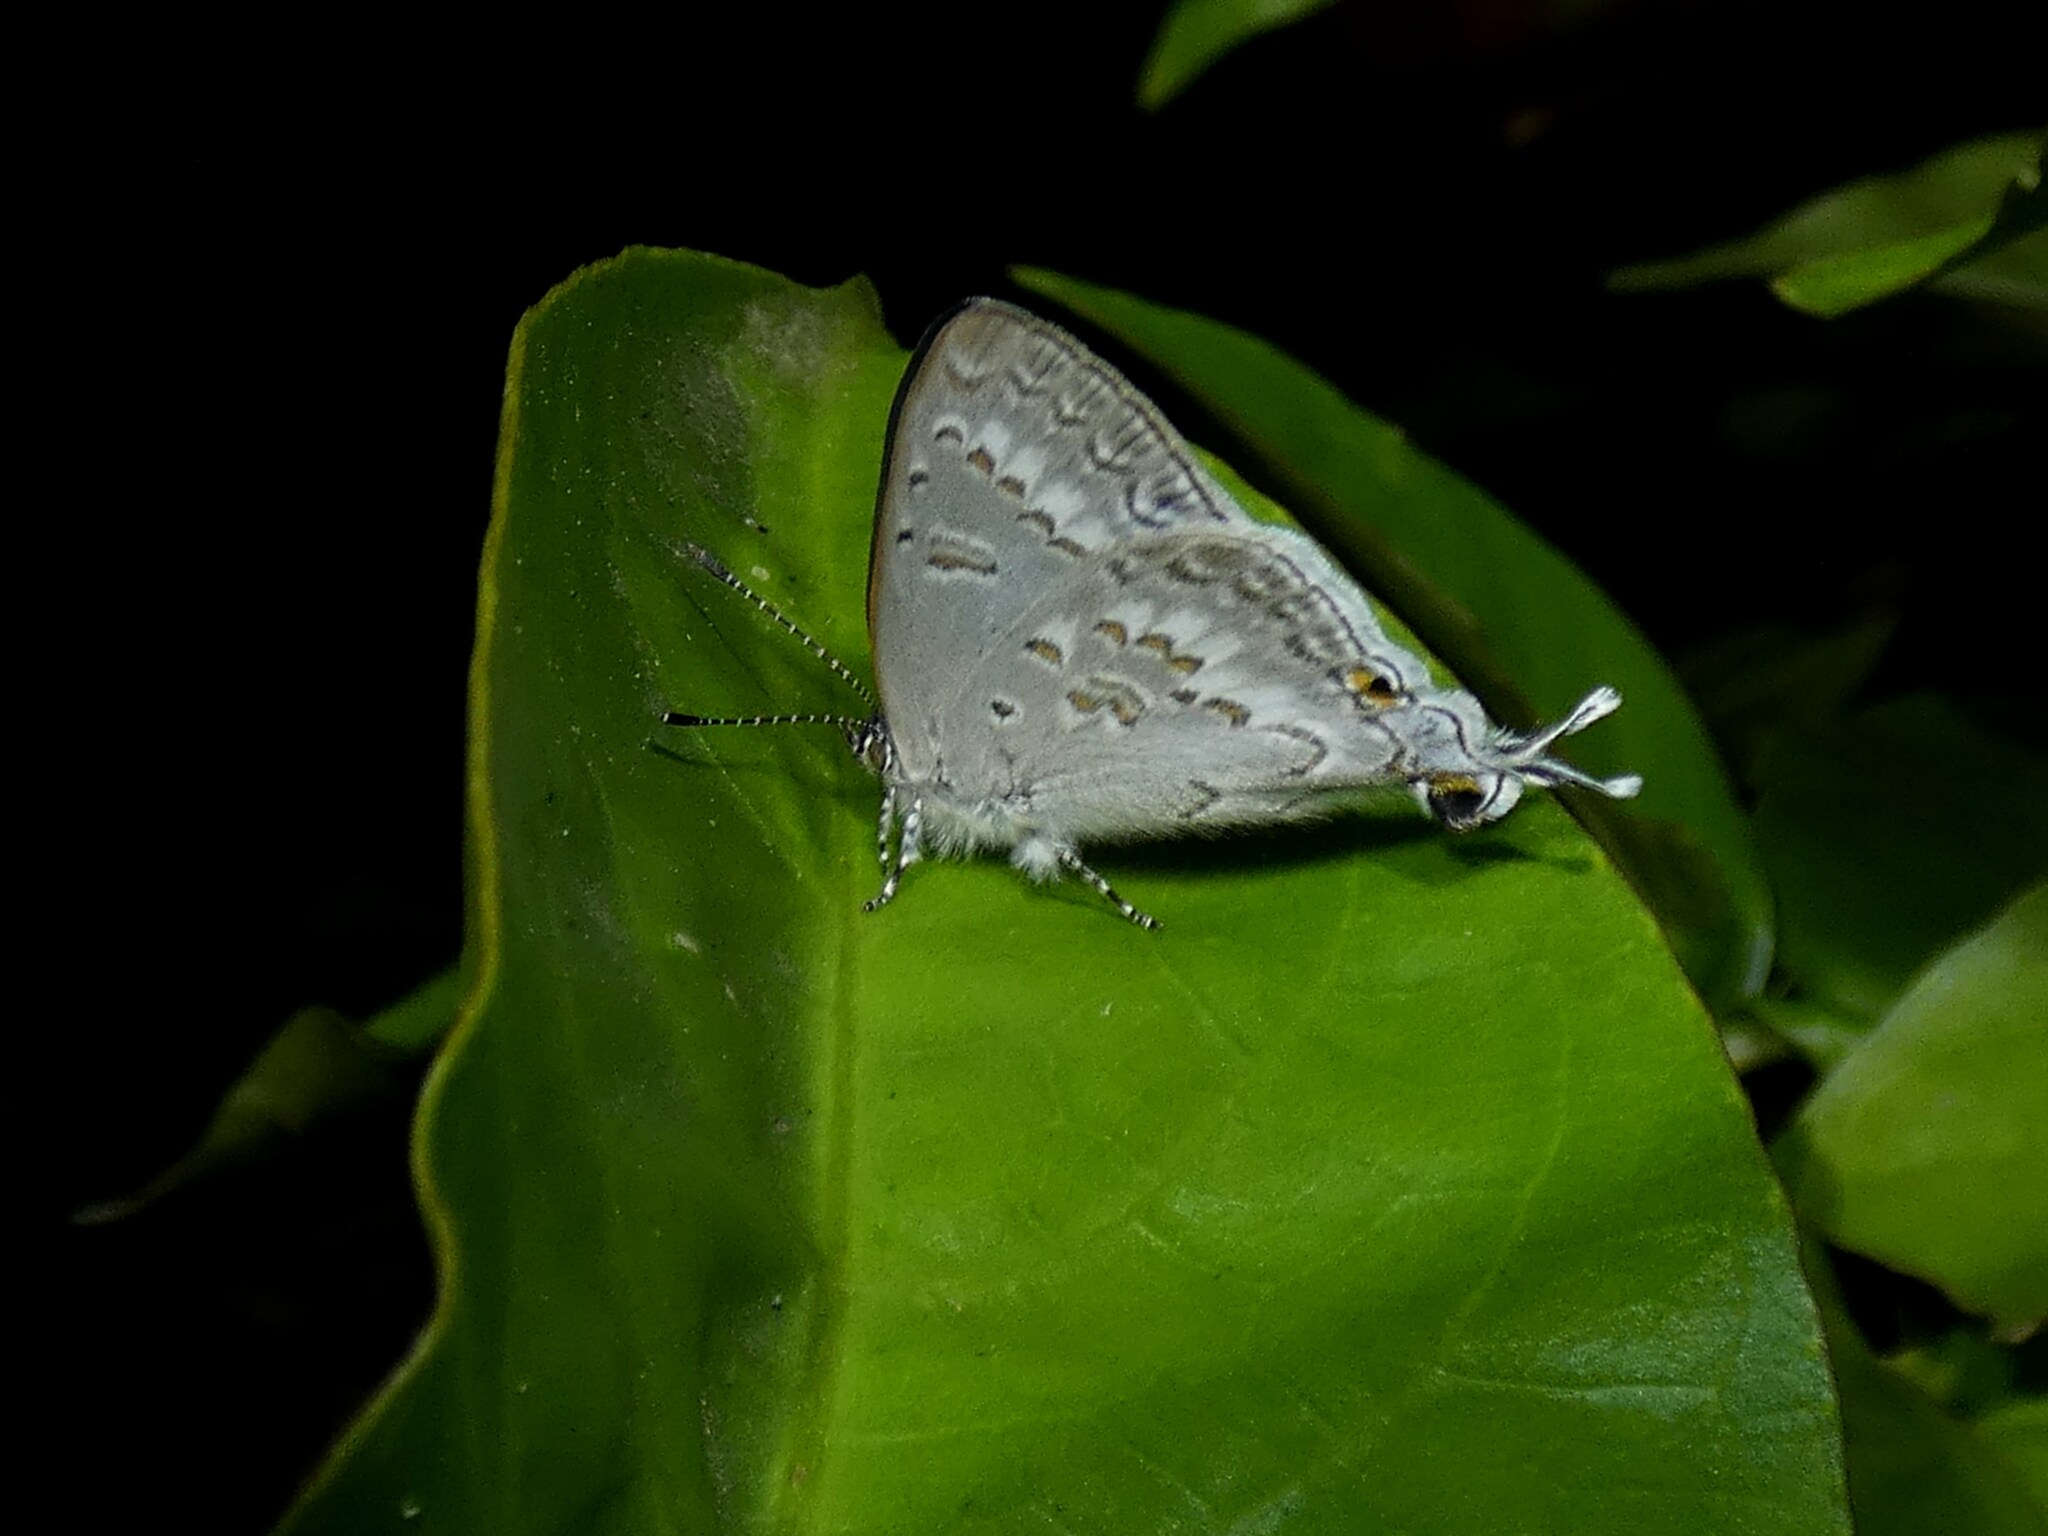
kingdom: Animalia
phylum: Arthropoda
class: Insecta
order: Lepidoptera
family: Lycaenidae
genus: Leptomyrina
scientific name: Leptomyrina phidias
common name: Madagascar black-eye
